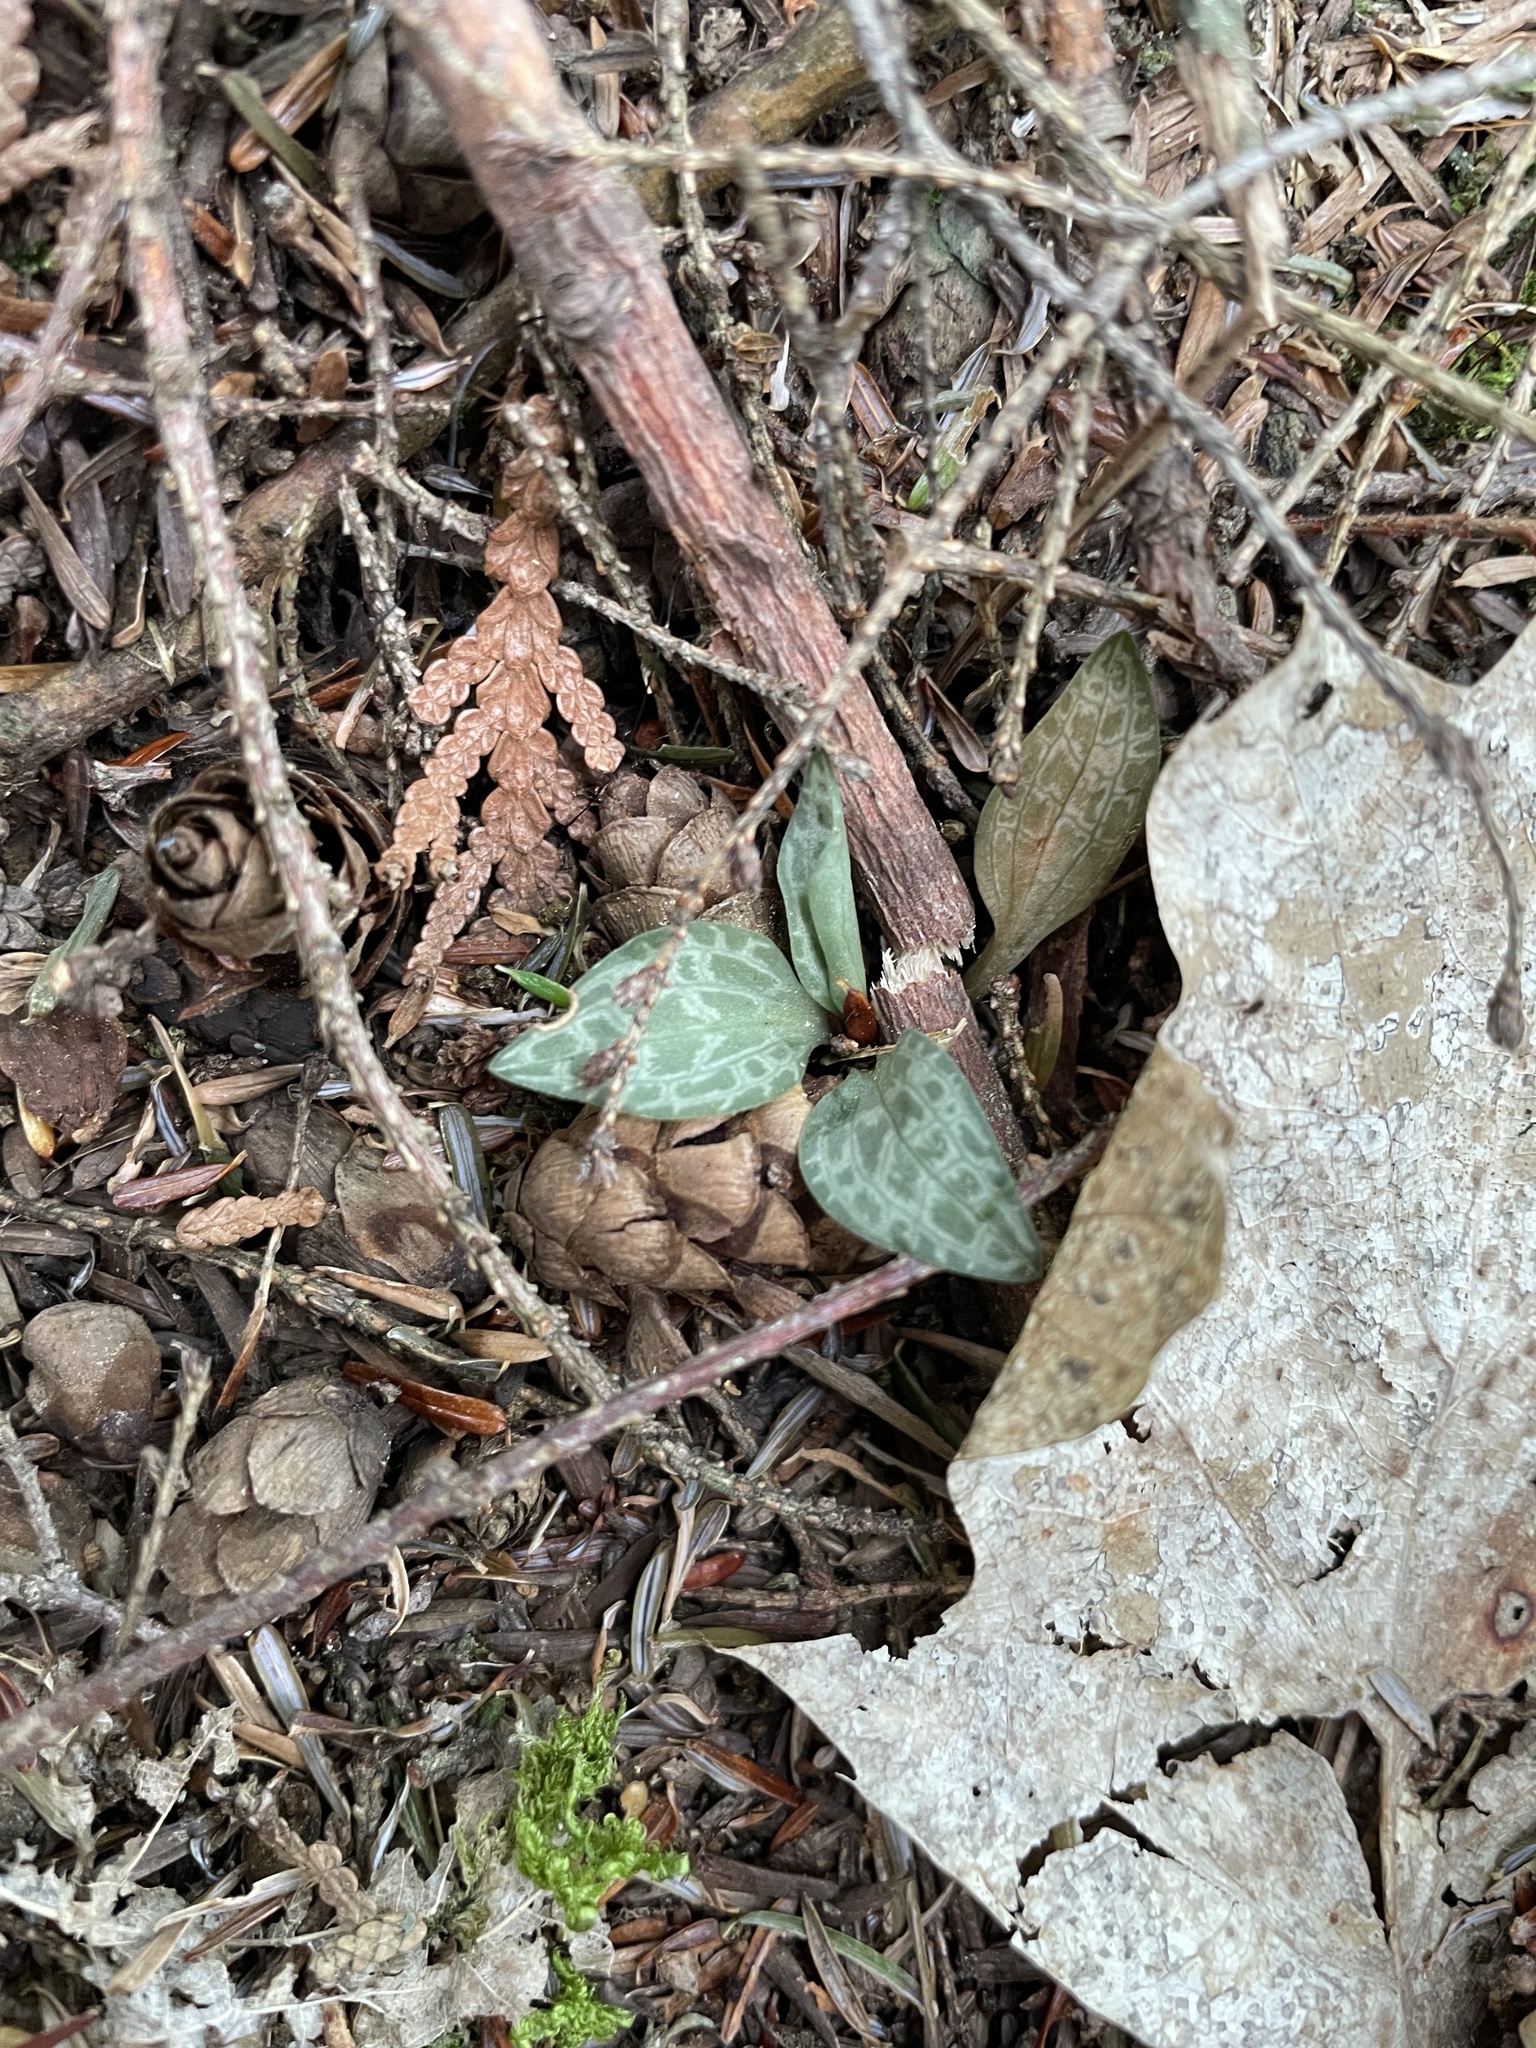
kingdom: Plantae
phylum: Tracheophyta
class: Liliopsida
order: Asparagales
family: Orchidaceae
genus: Goodyera
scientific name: Goodyera tesselata
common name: Checkered rattlesnake-plantain
